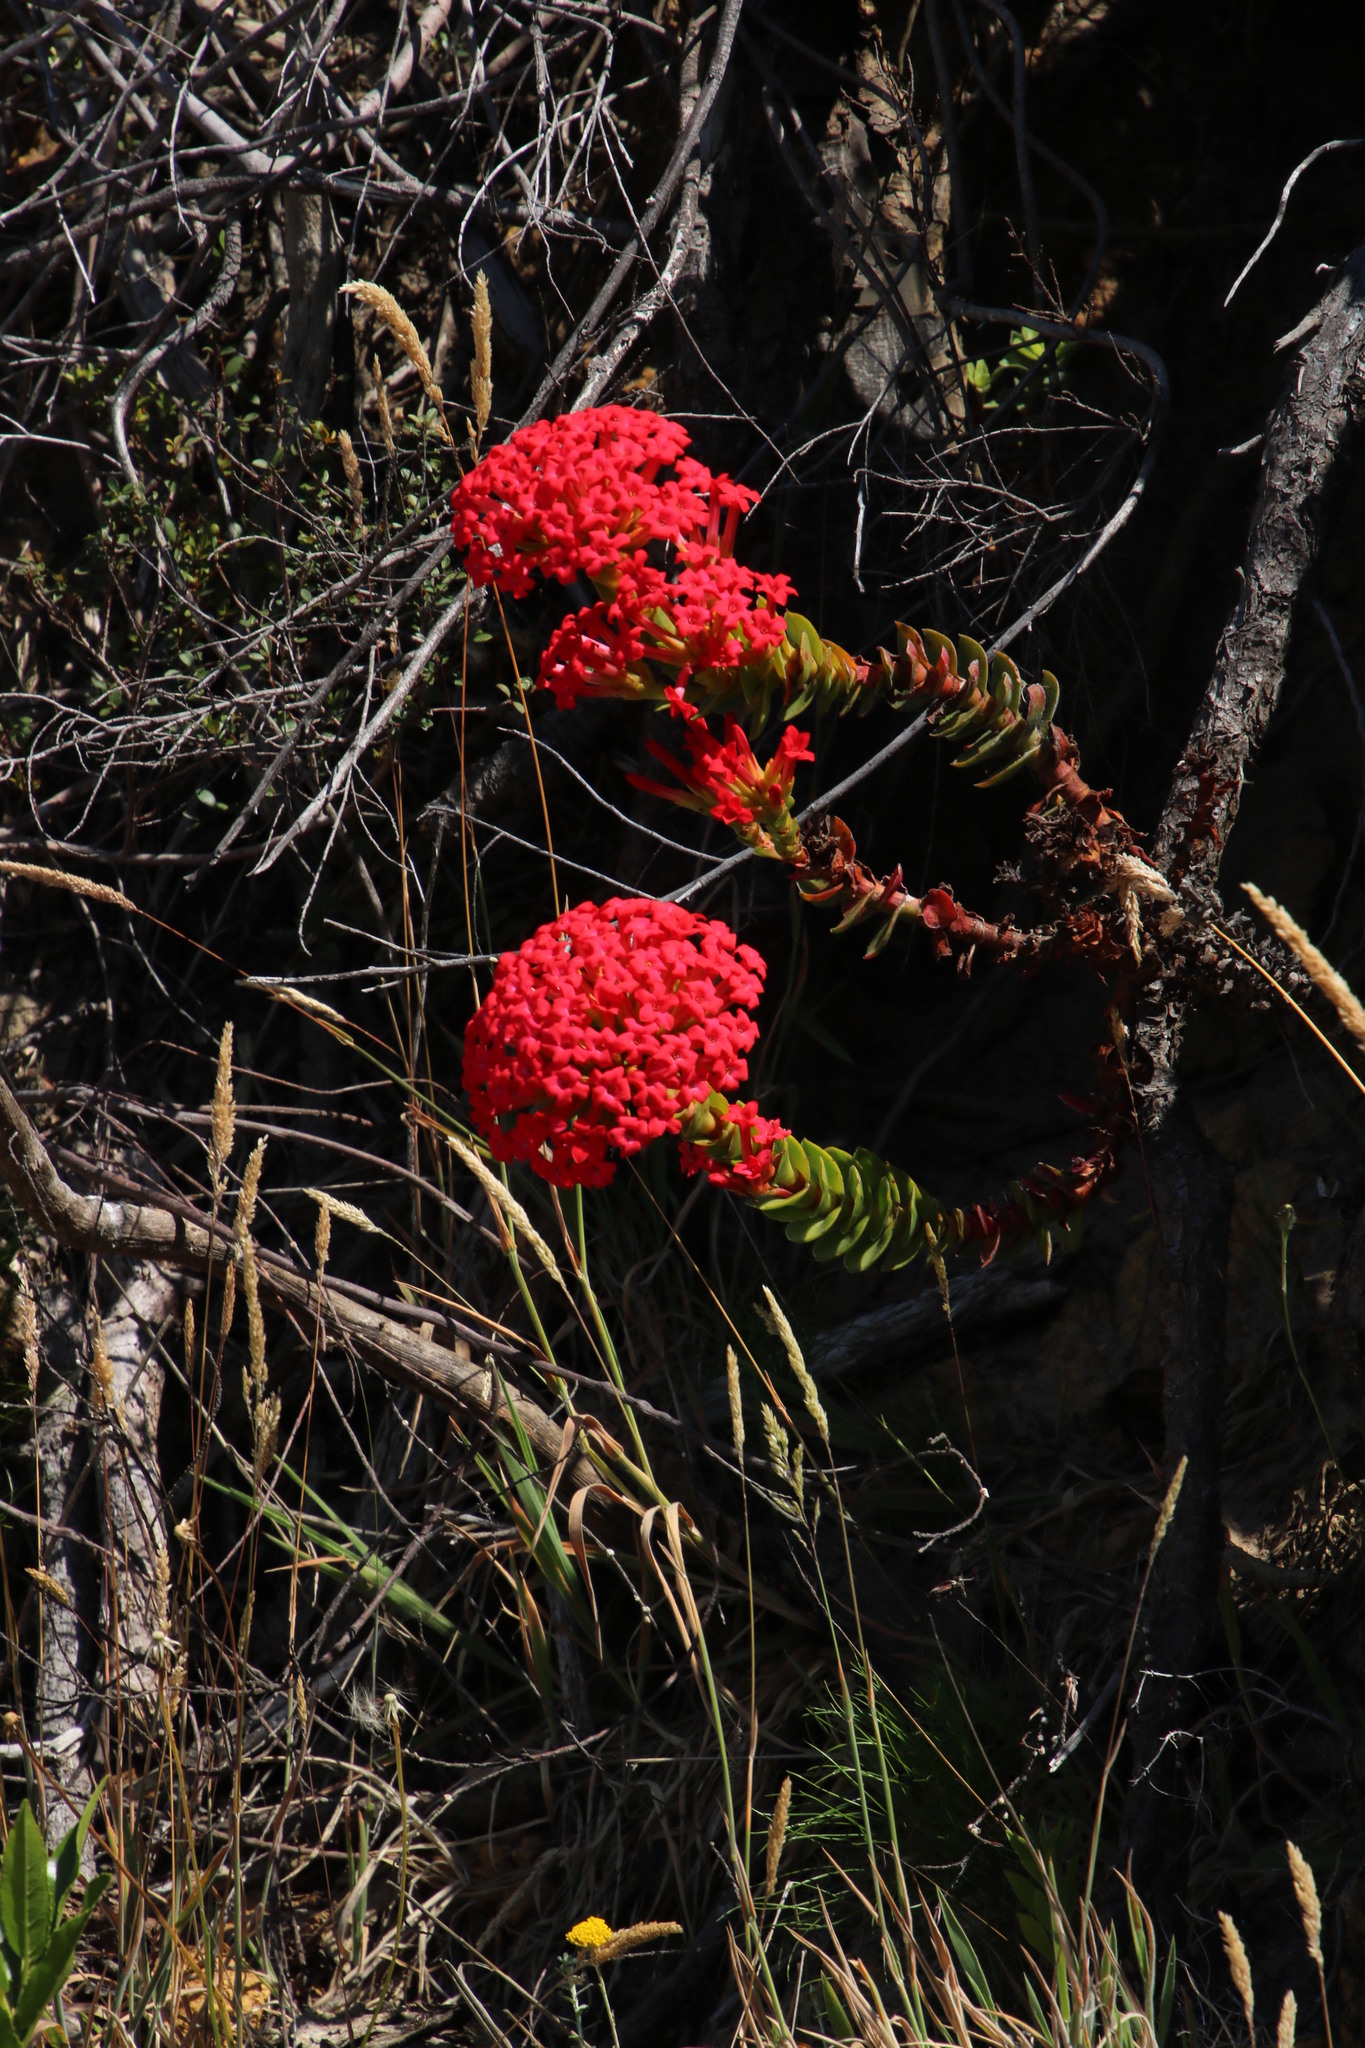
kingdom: Plantae
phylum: Tracheophyta
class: Magnoliopsida
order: Saxifragales
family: Crassulaceae
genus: Crassula
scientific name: Crassula coccinea
